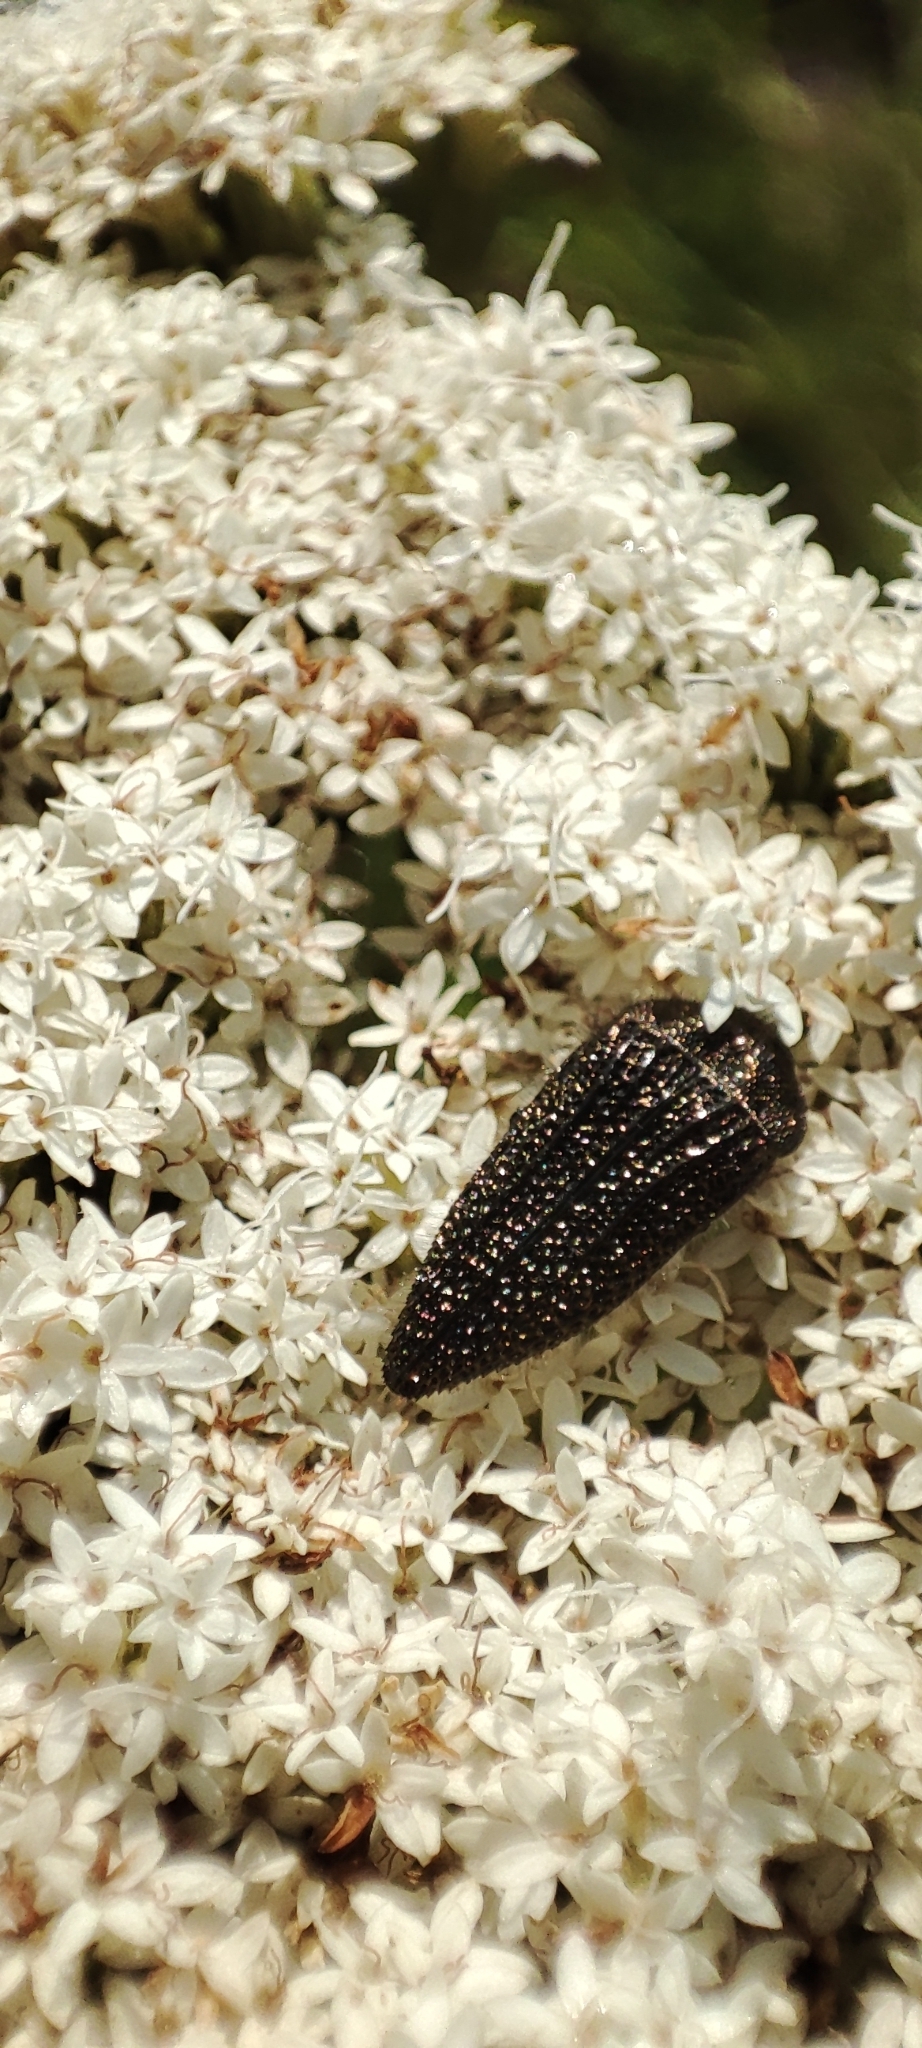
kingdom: Animalia
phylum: Arthropoda
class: Insecta
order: Coleoptera
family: Buprestidae
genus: Acmaeodera
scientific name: Acmaeodera cuprina
